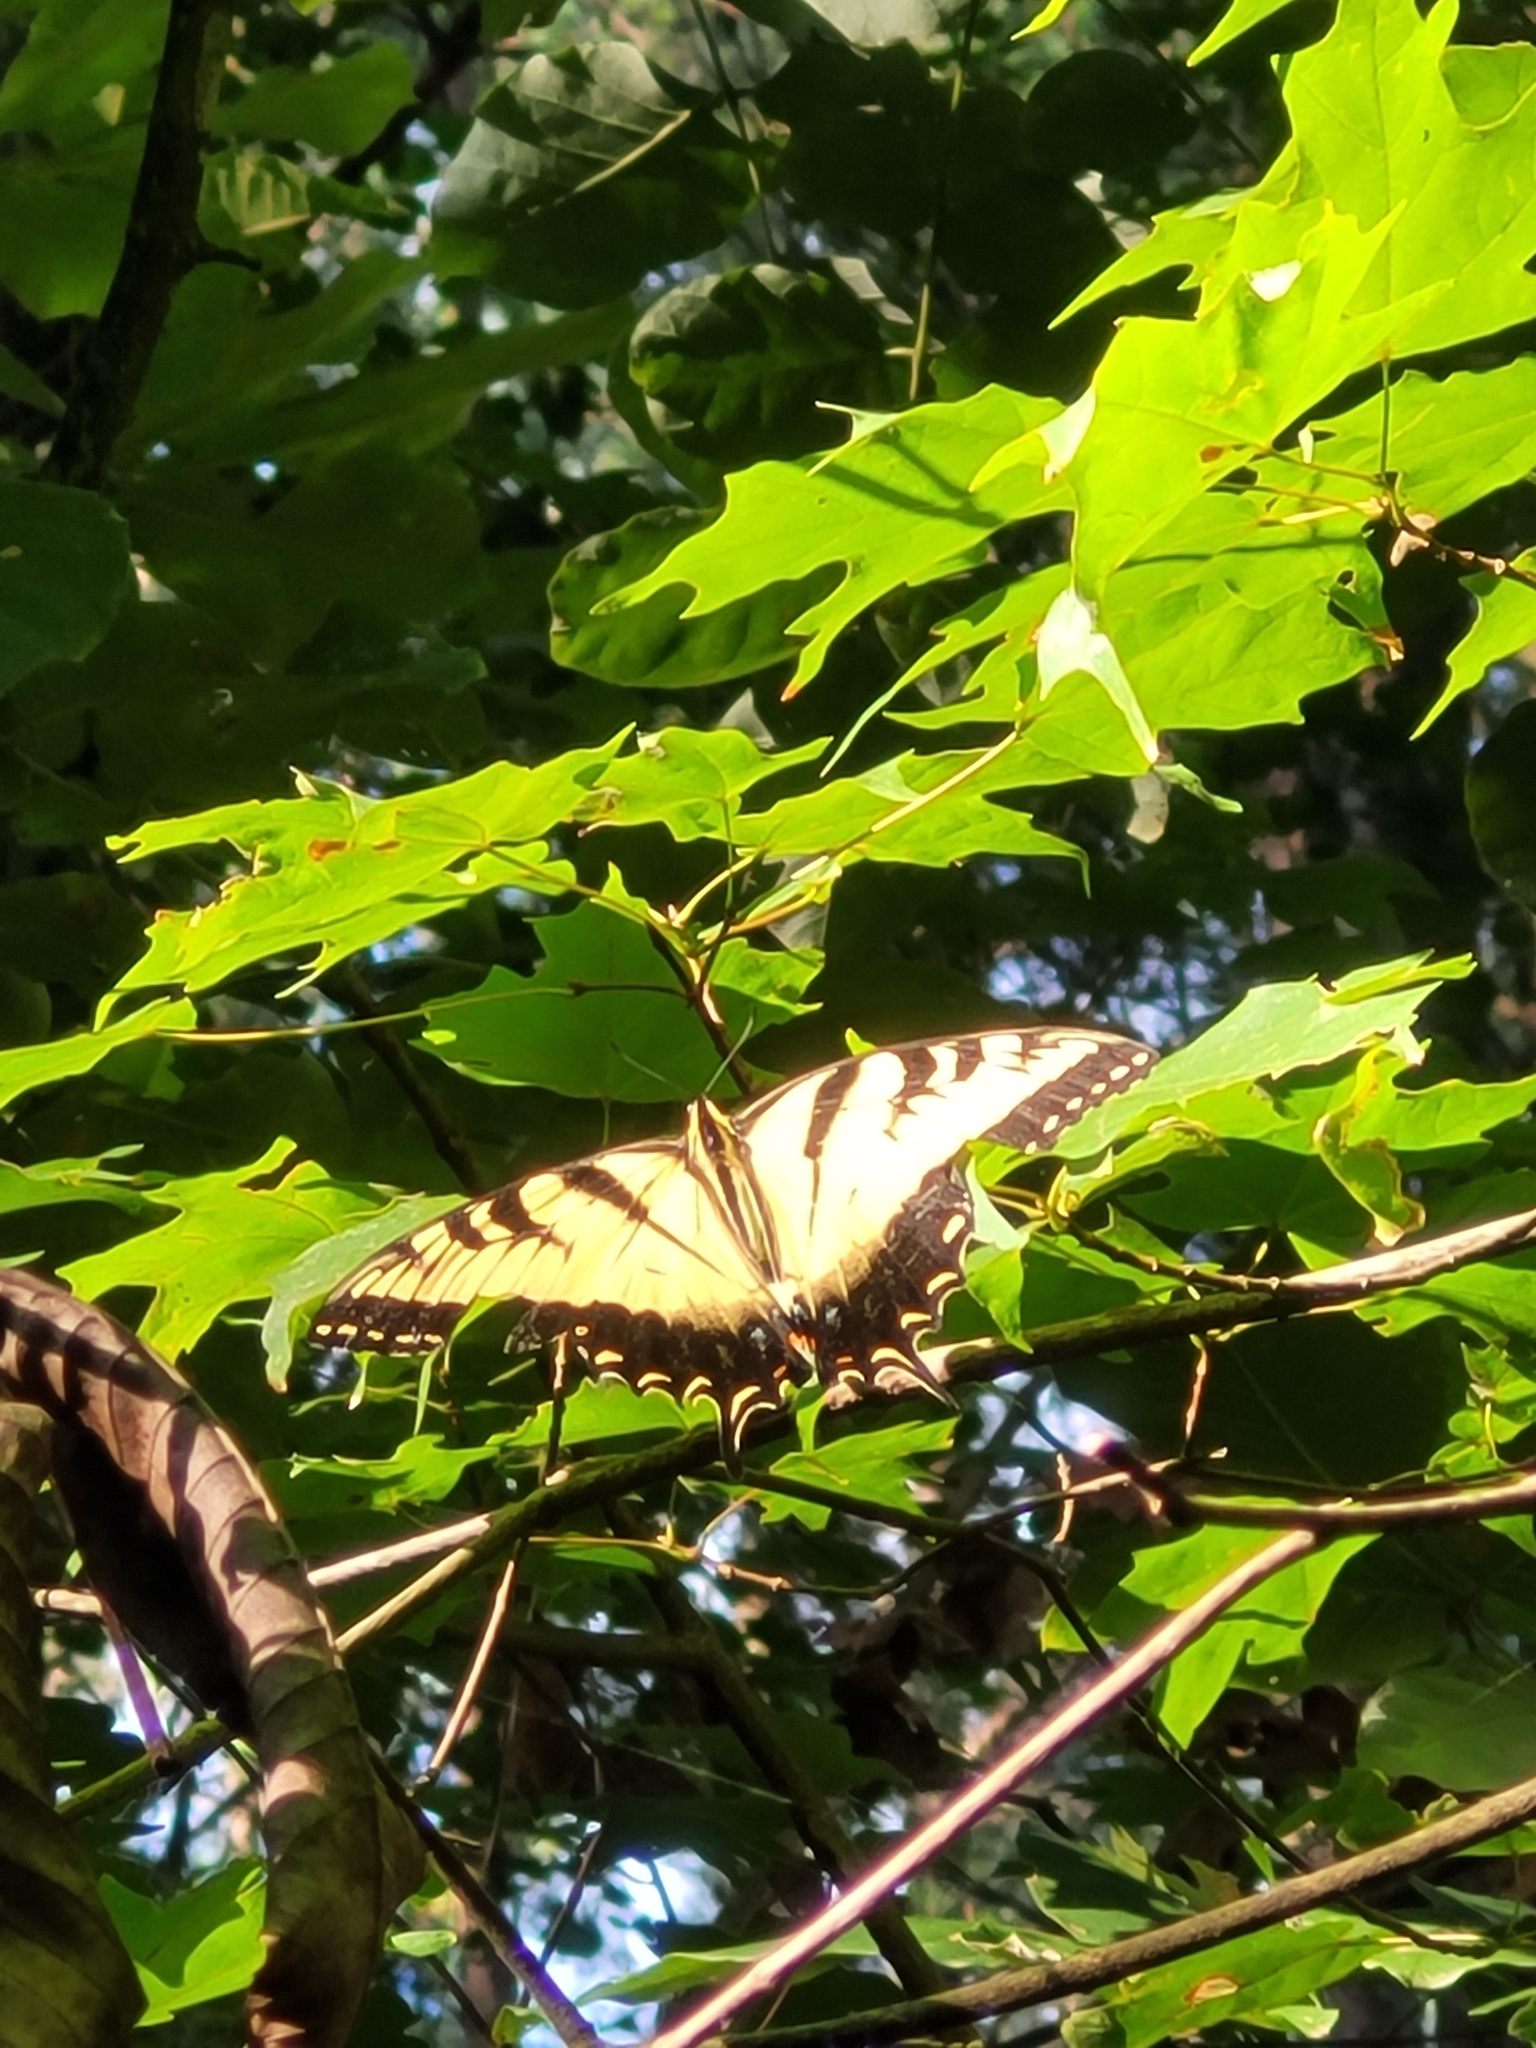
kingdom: Animalia
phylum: Arthropoda
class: Insecta
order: Lepidoptera
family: Papilionidae
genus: Papilio
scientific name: Papilio glaucus
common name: Tiger swallowtail
